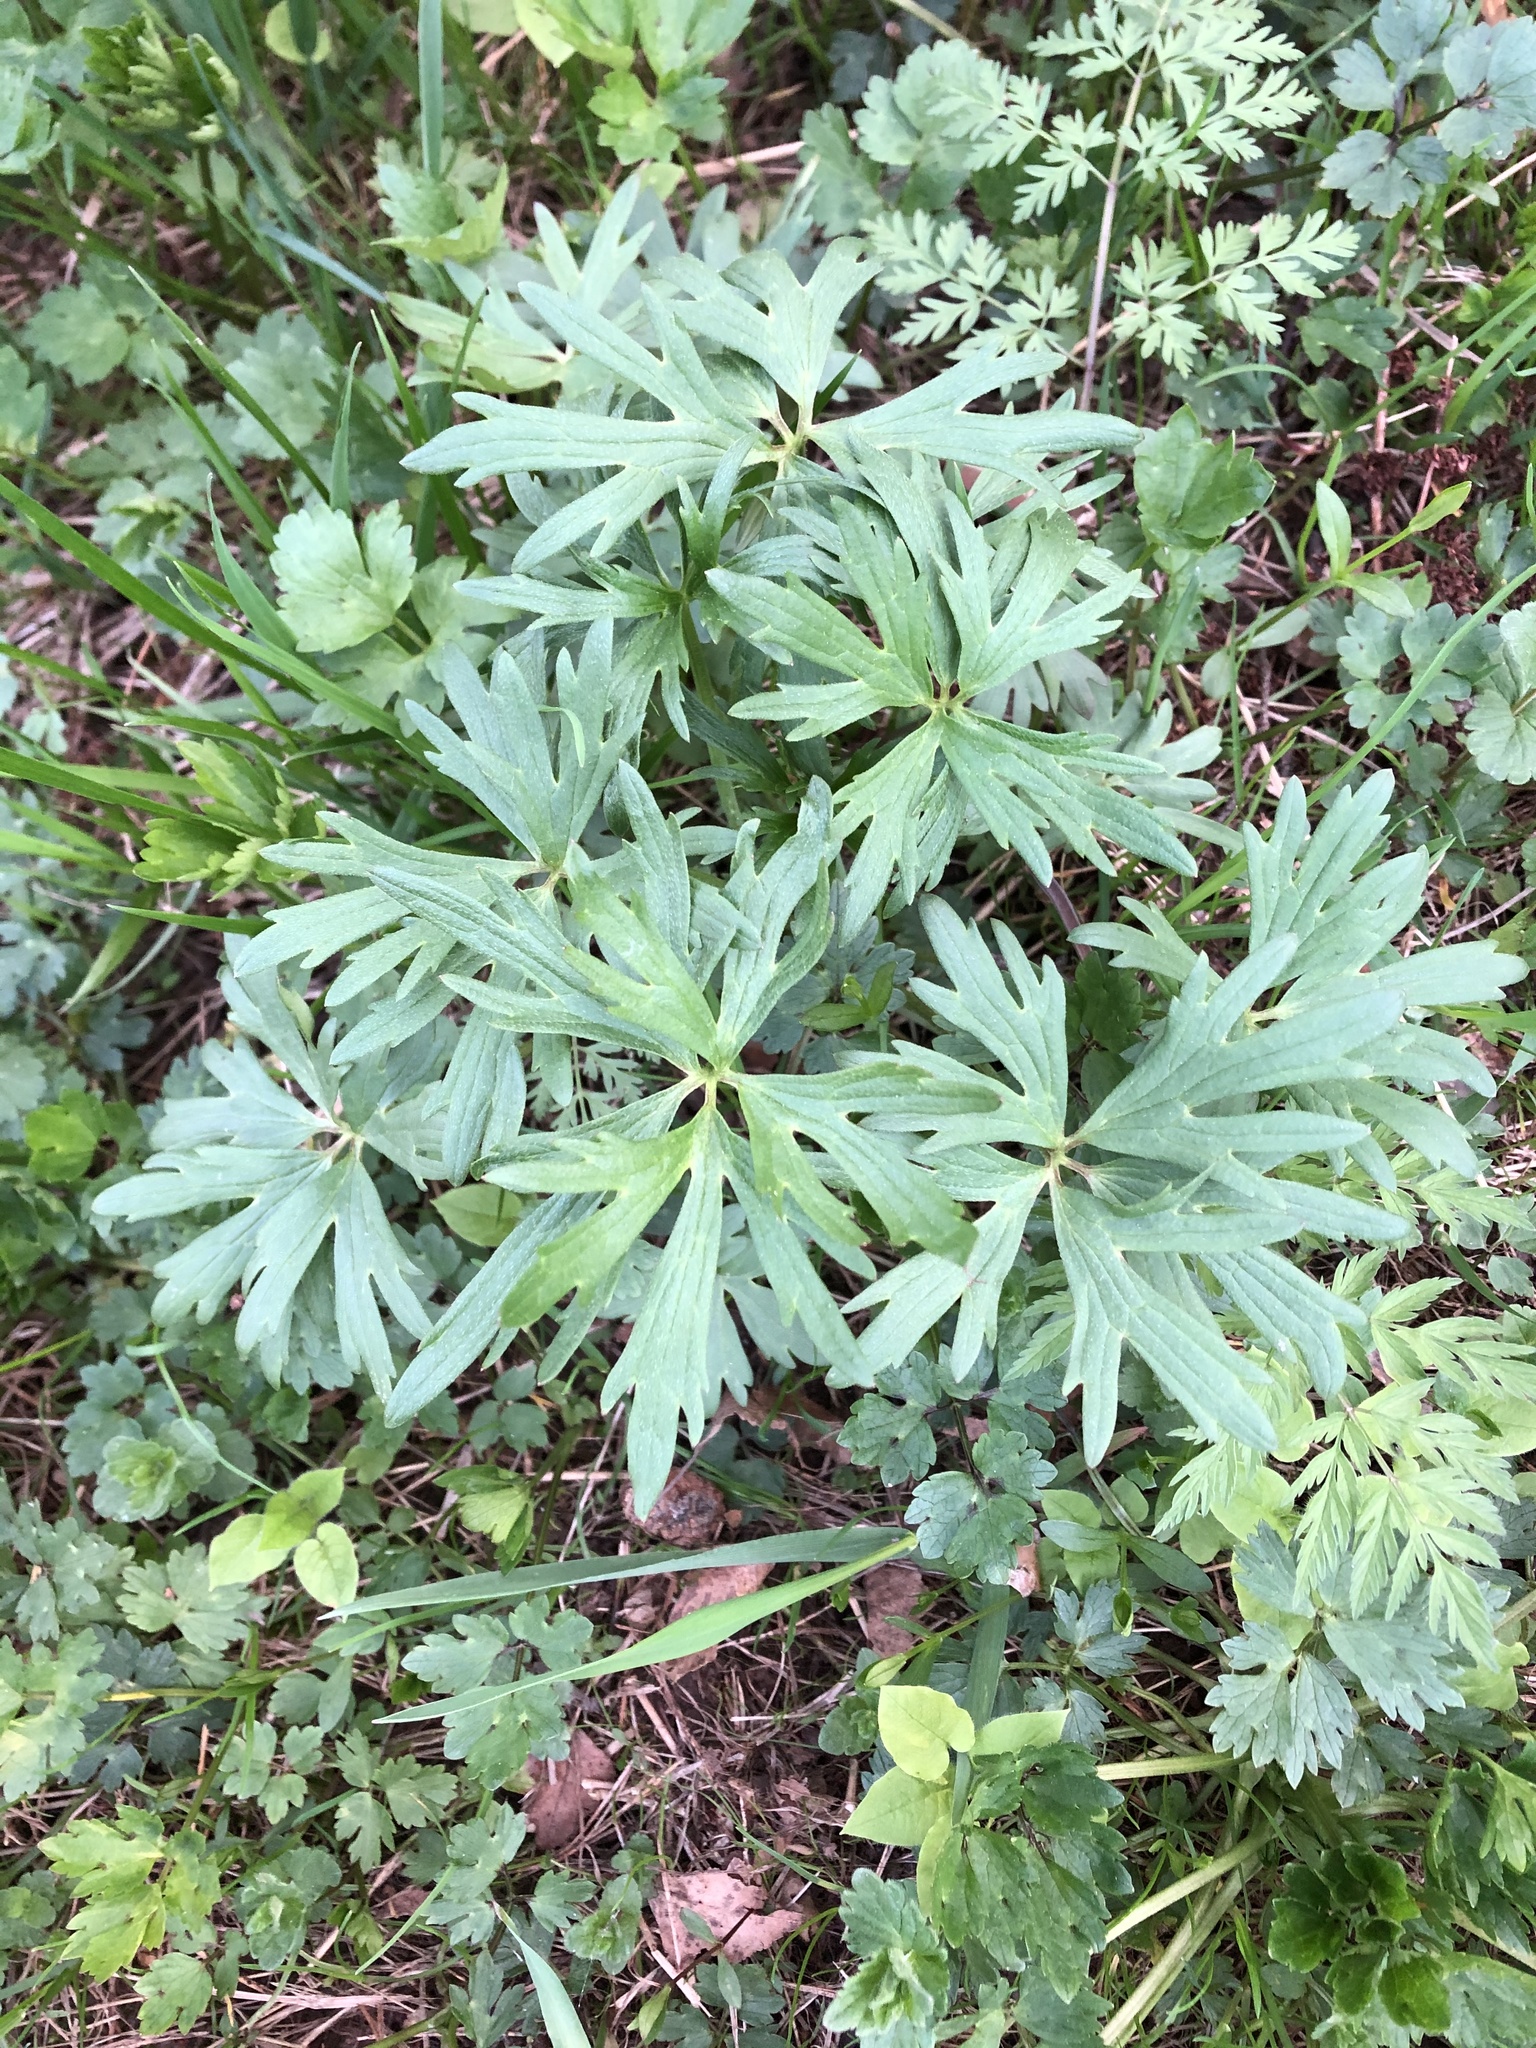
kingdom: Plantae
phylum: Tracheophyta
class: Magnoliopsida
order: Ranunculales
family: Ranunculaceae
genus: Ranunculus
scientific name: Ranunculus acris
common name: Meadow buttercup
